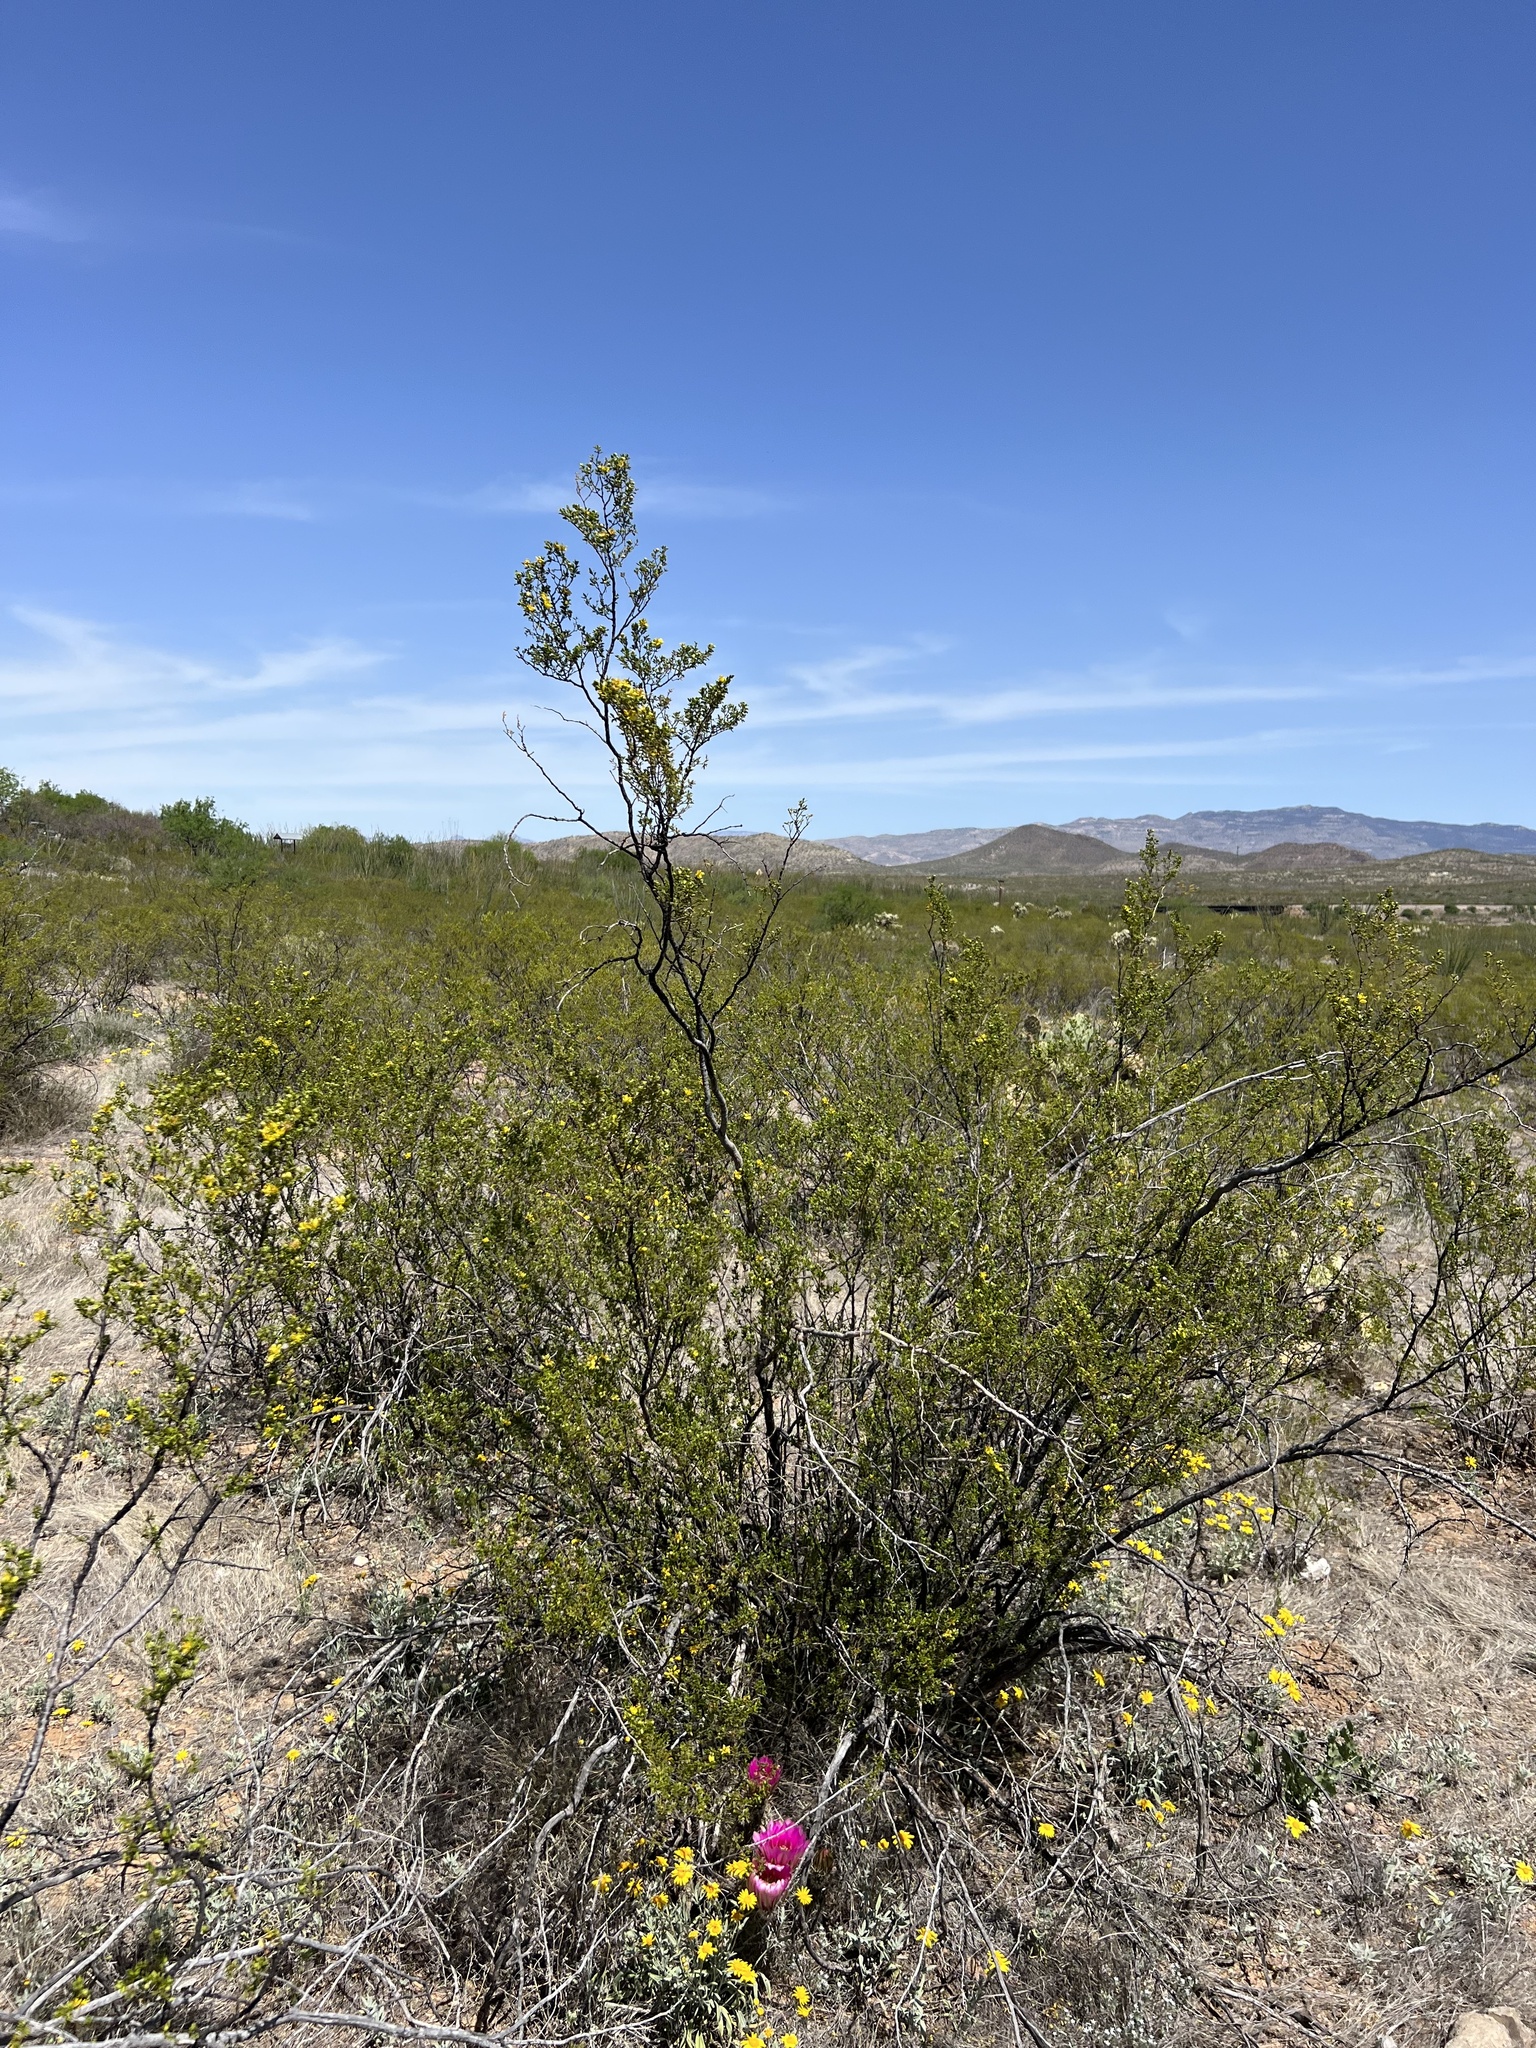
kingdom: Plantae
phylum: Tracheophyta
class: Magnoliopsida
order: Zygophyllales
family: Zygophyllaceae
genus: Larrea
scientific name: Larrea tridentata
